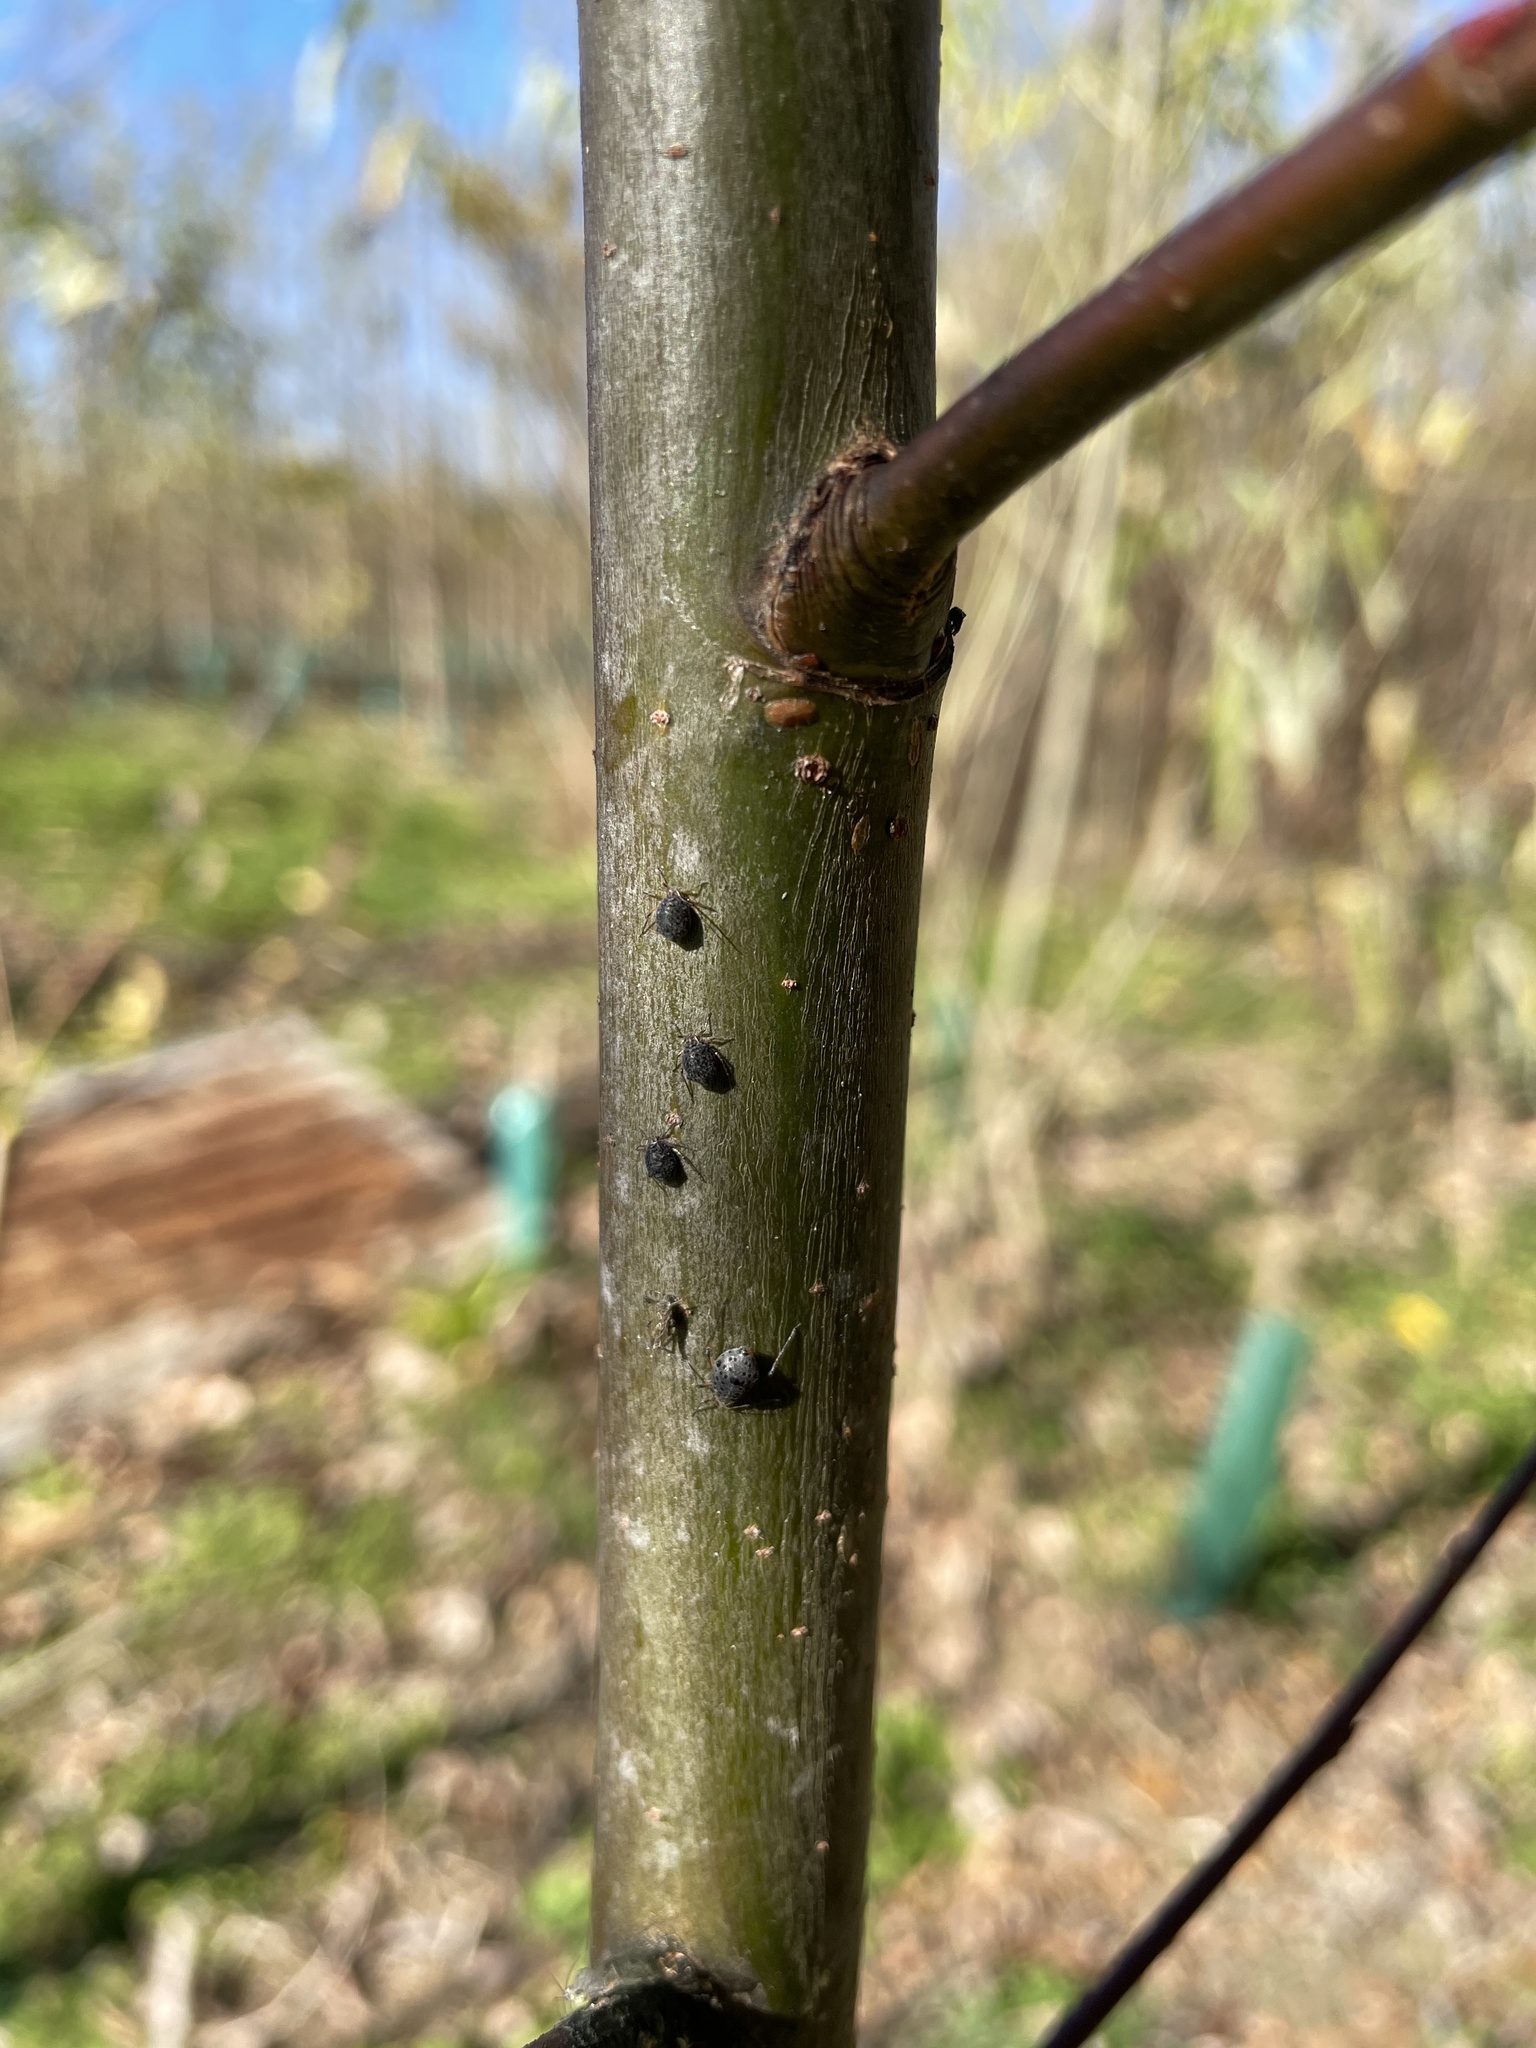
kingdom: Animalia
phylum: Arthropoda
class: Insecta
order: Hymenoptera
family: Braconidae
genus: Pauesia
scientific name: Pauesia nigrovaria
